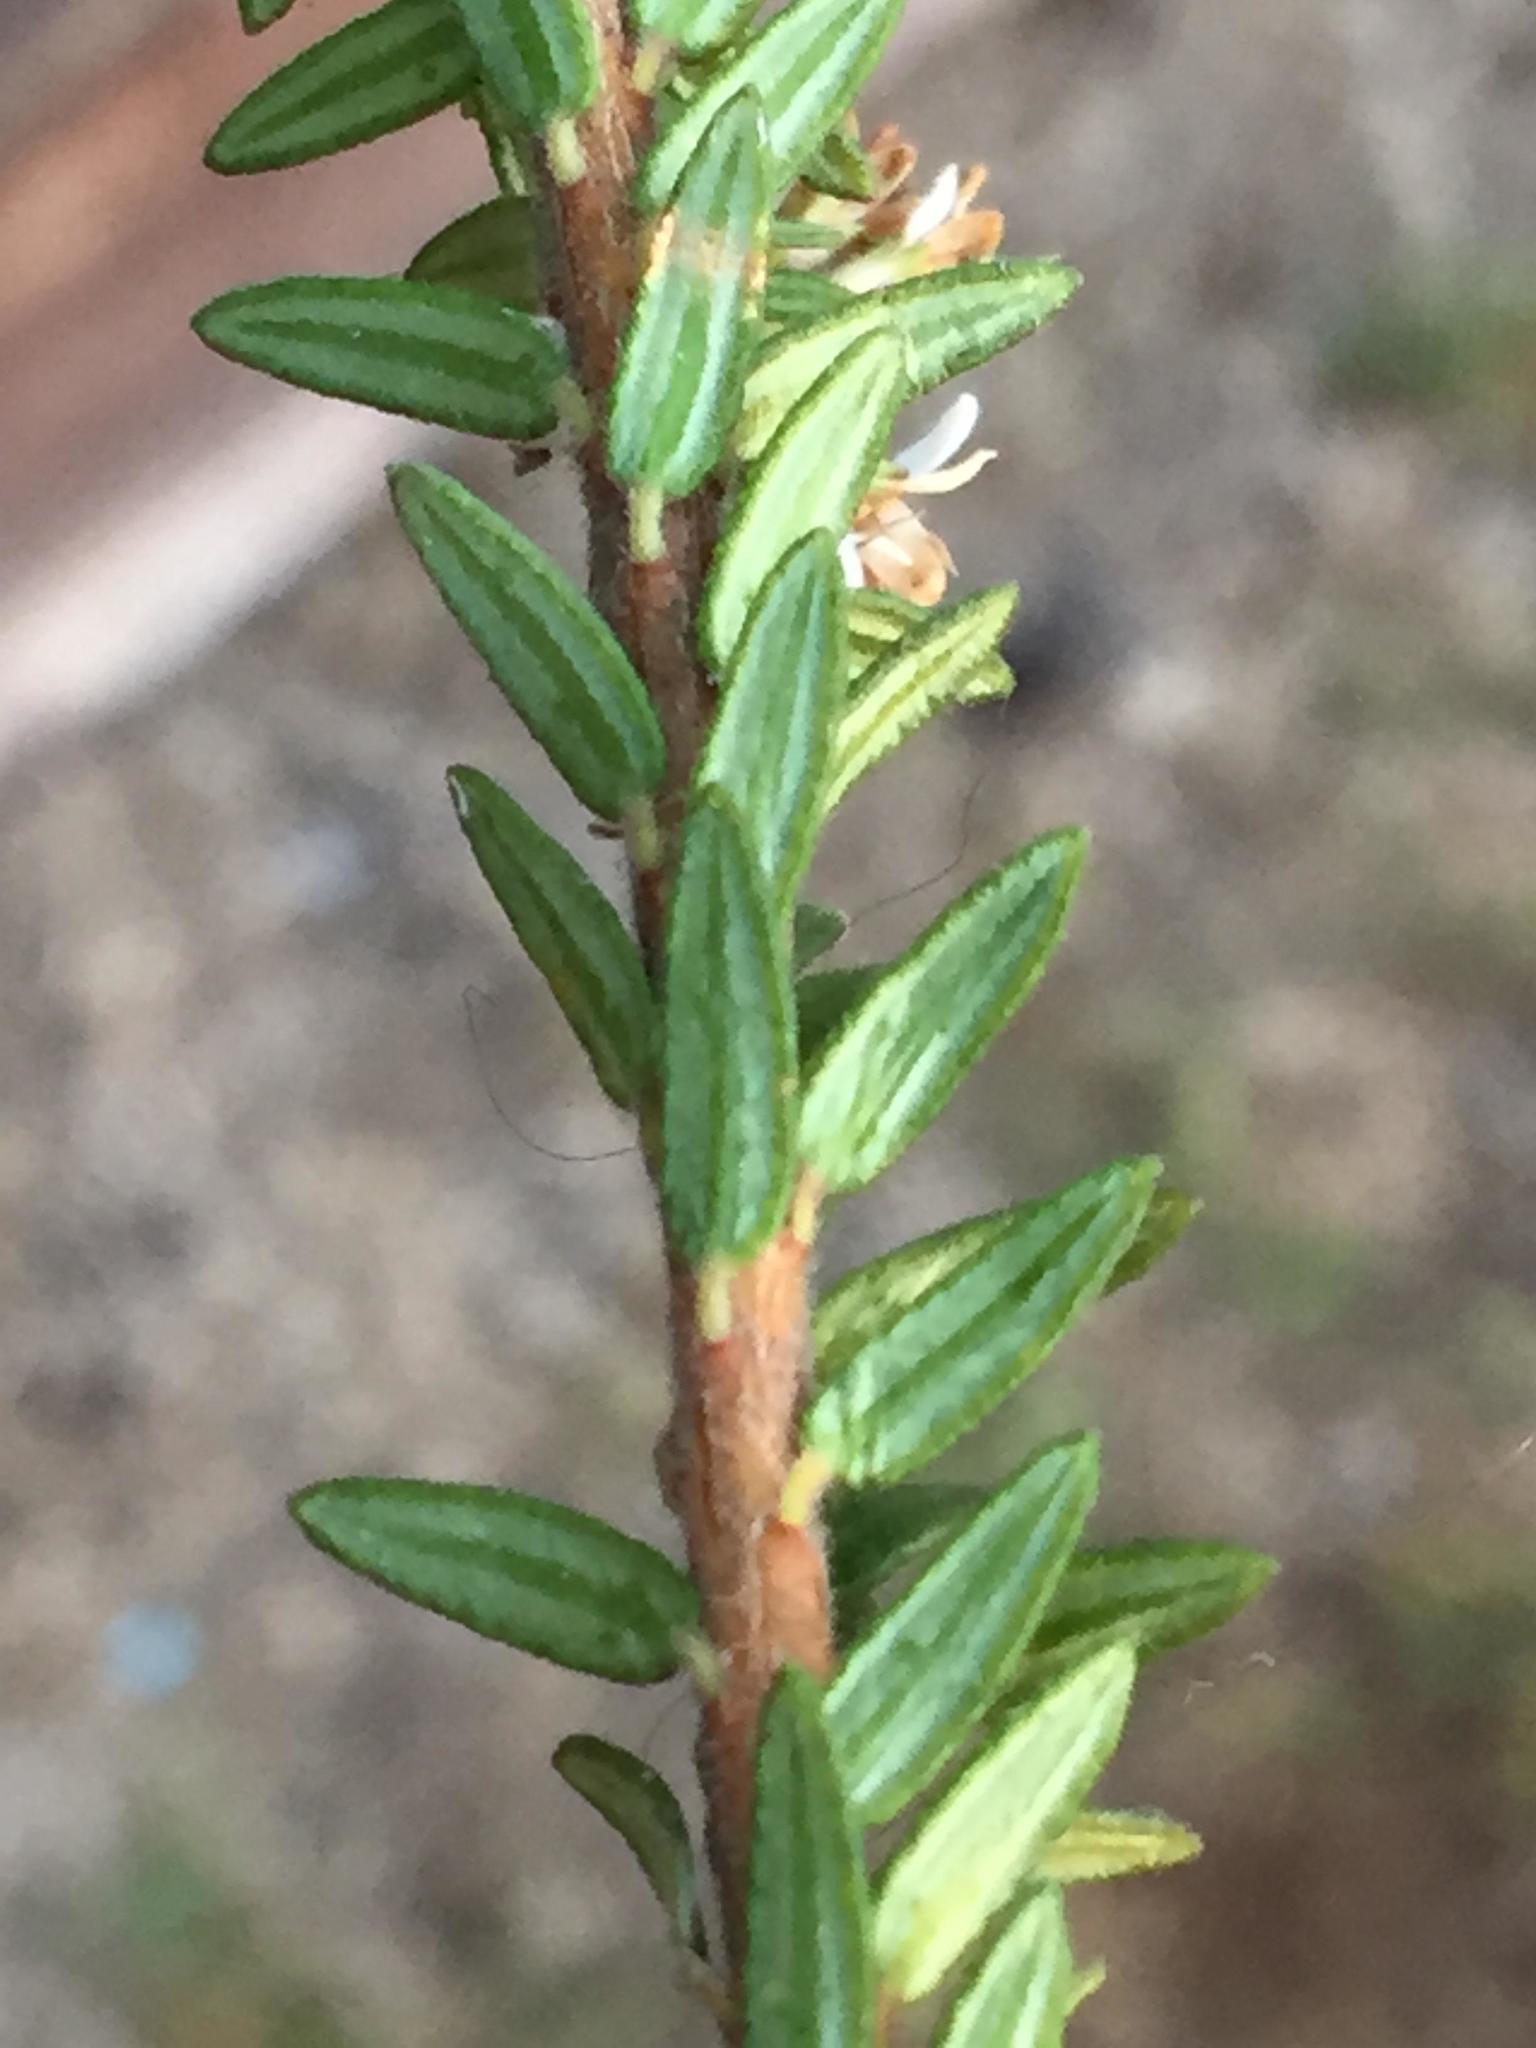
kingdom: Plantae
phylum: Tracheophyta
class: Magnoliopsida
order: Sapindales
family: Rutaceae
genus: Agathosma
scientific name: Agathosma mundtii
